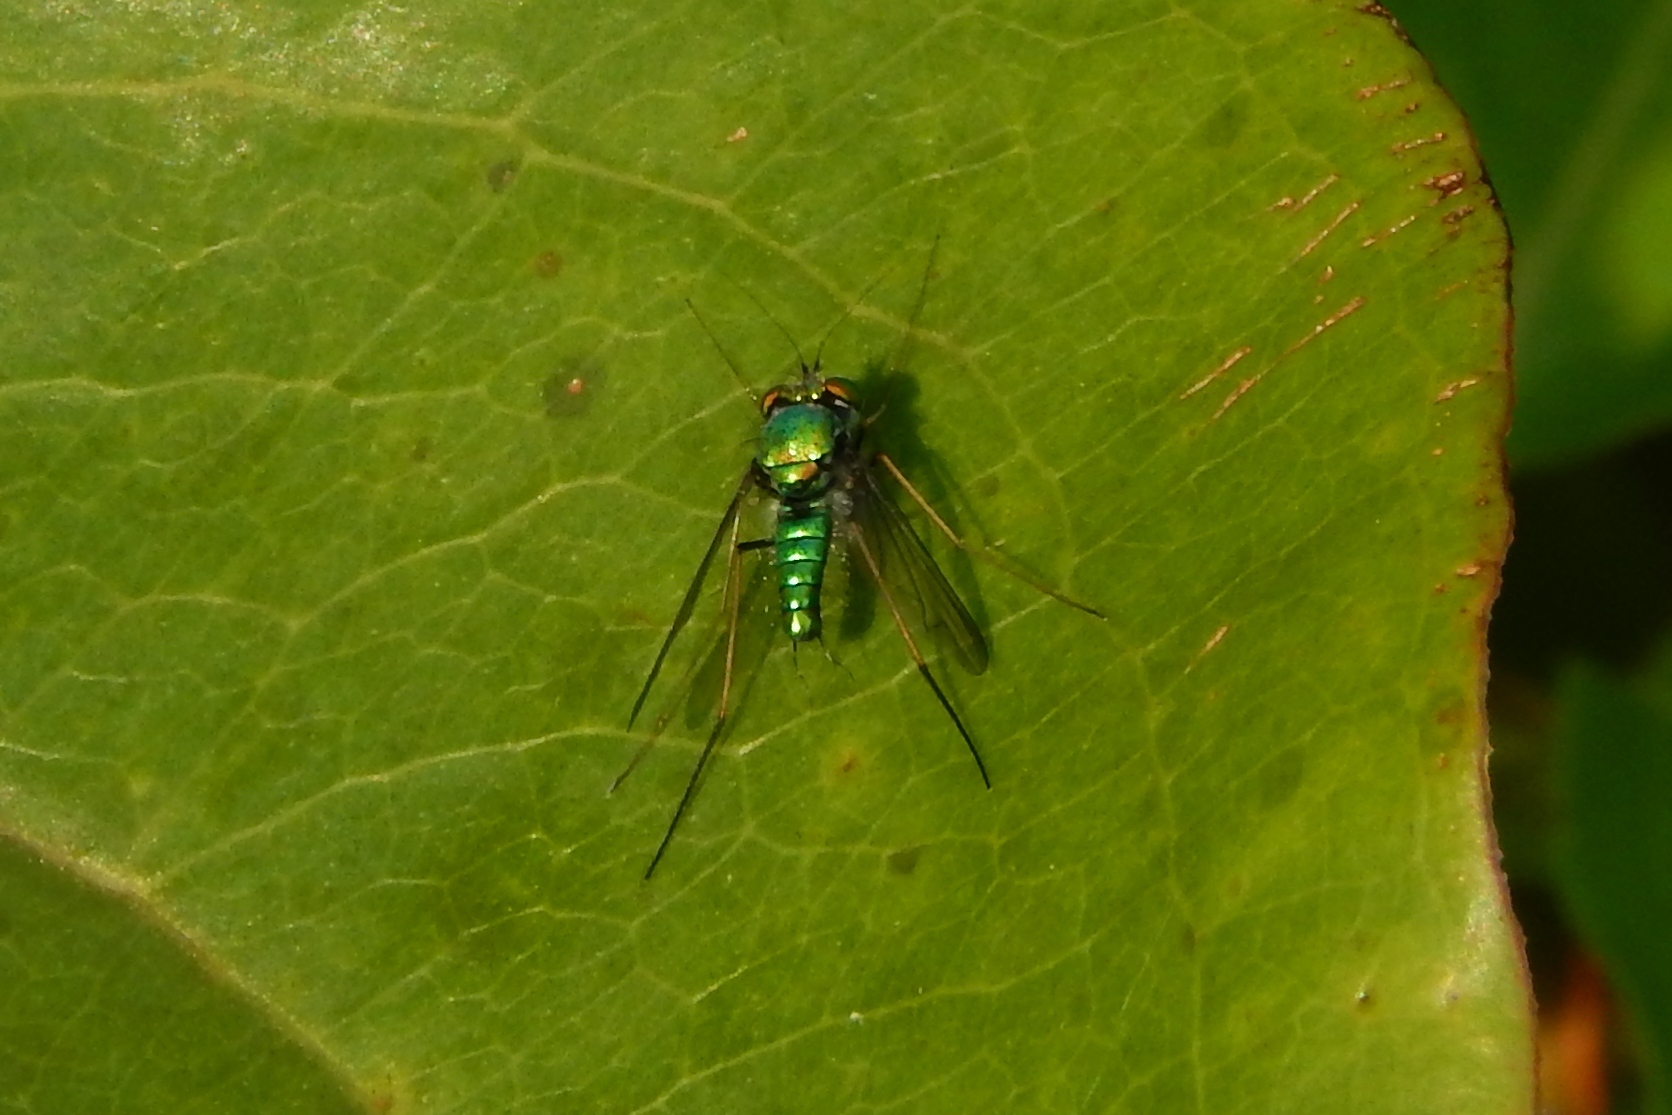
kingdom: Animalia
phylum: Arthropoda
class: Insecta
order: Diptera
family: Dolichopodidae
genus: Condylostylus
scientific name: Condylostylus comatus
